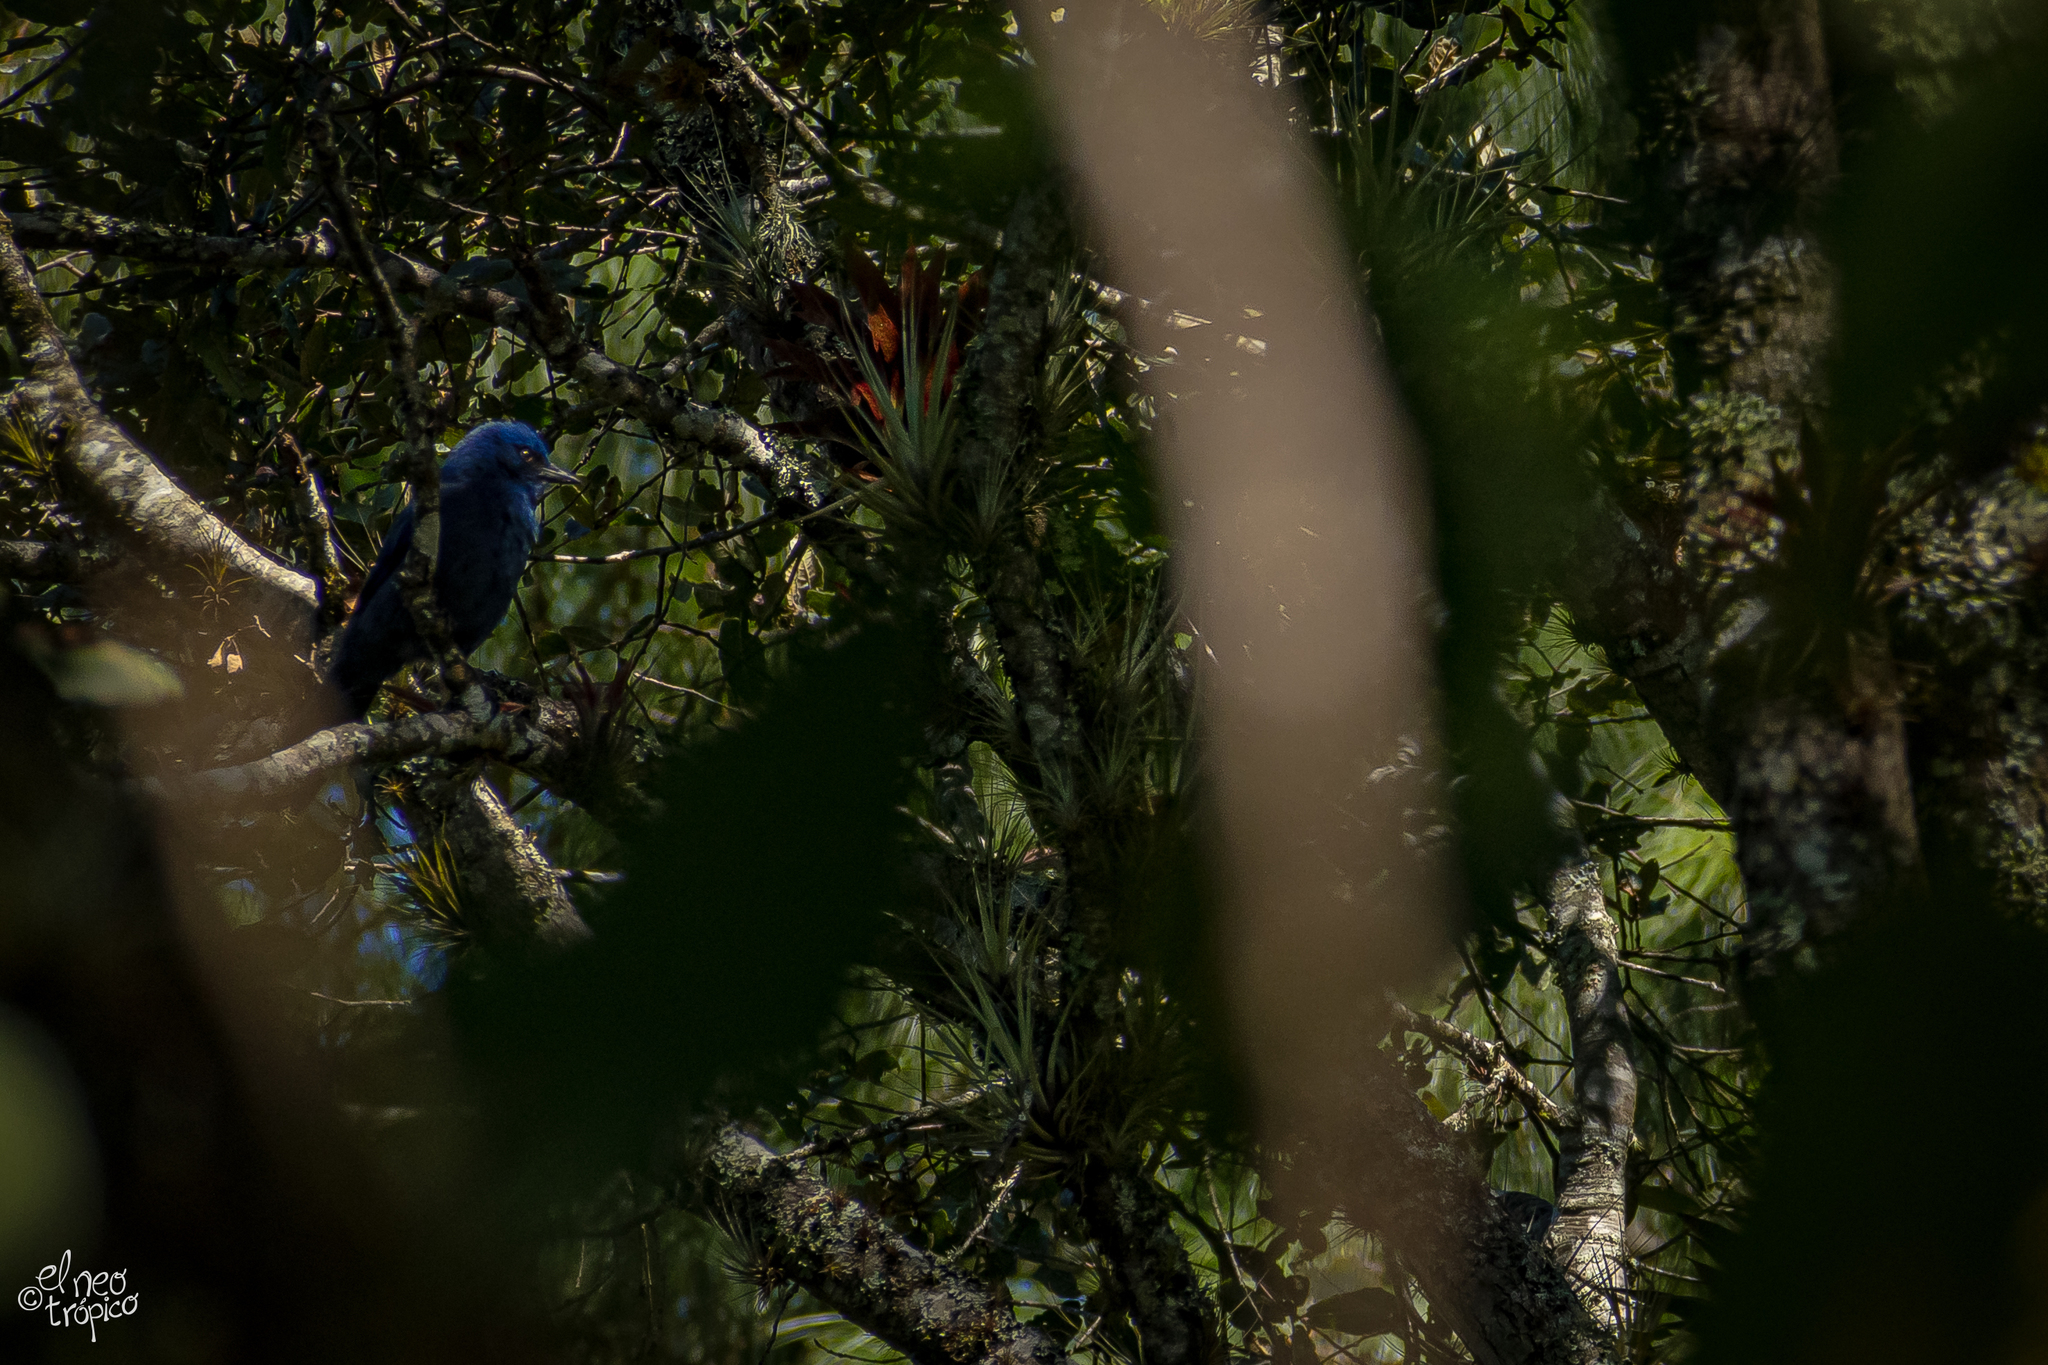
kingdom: Animalia
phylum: Chordata
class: Aves
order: Passeriformes
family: Corvidae
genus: Aphelocoma
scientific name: Aphelocoma unicolor
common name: Unicolored jay
